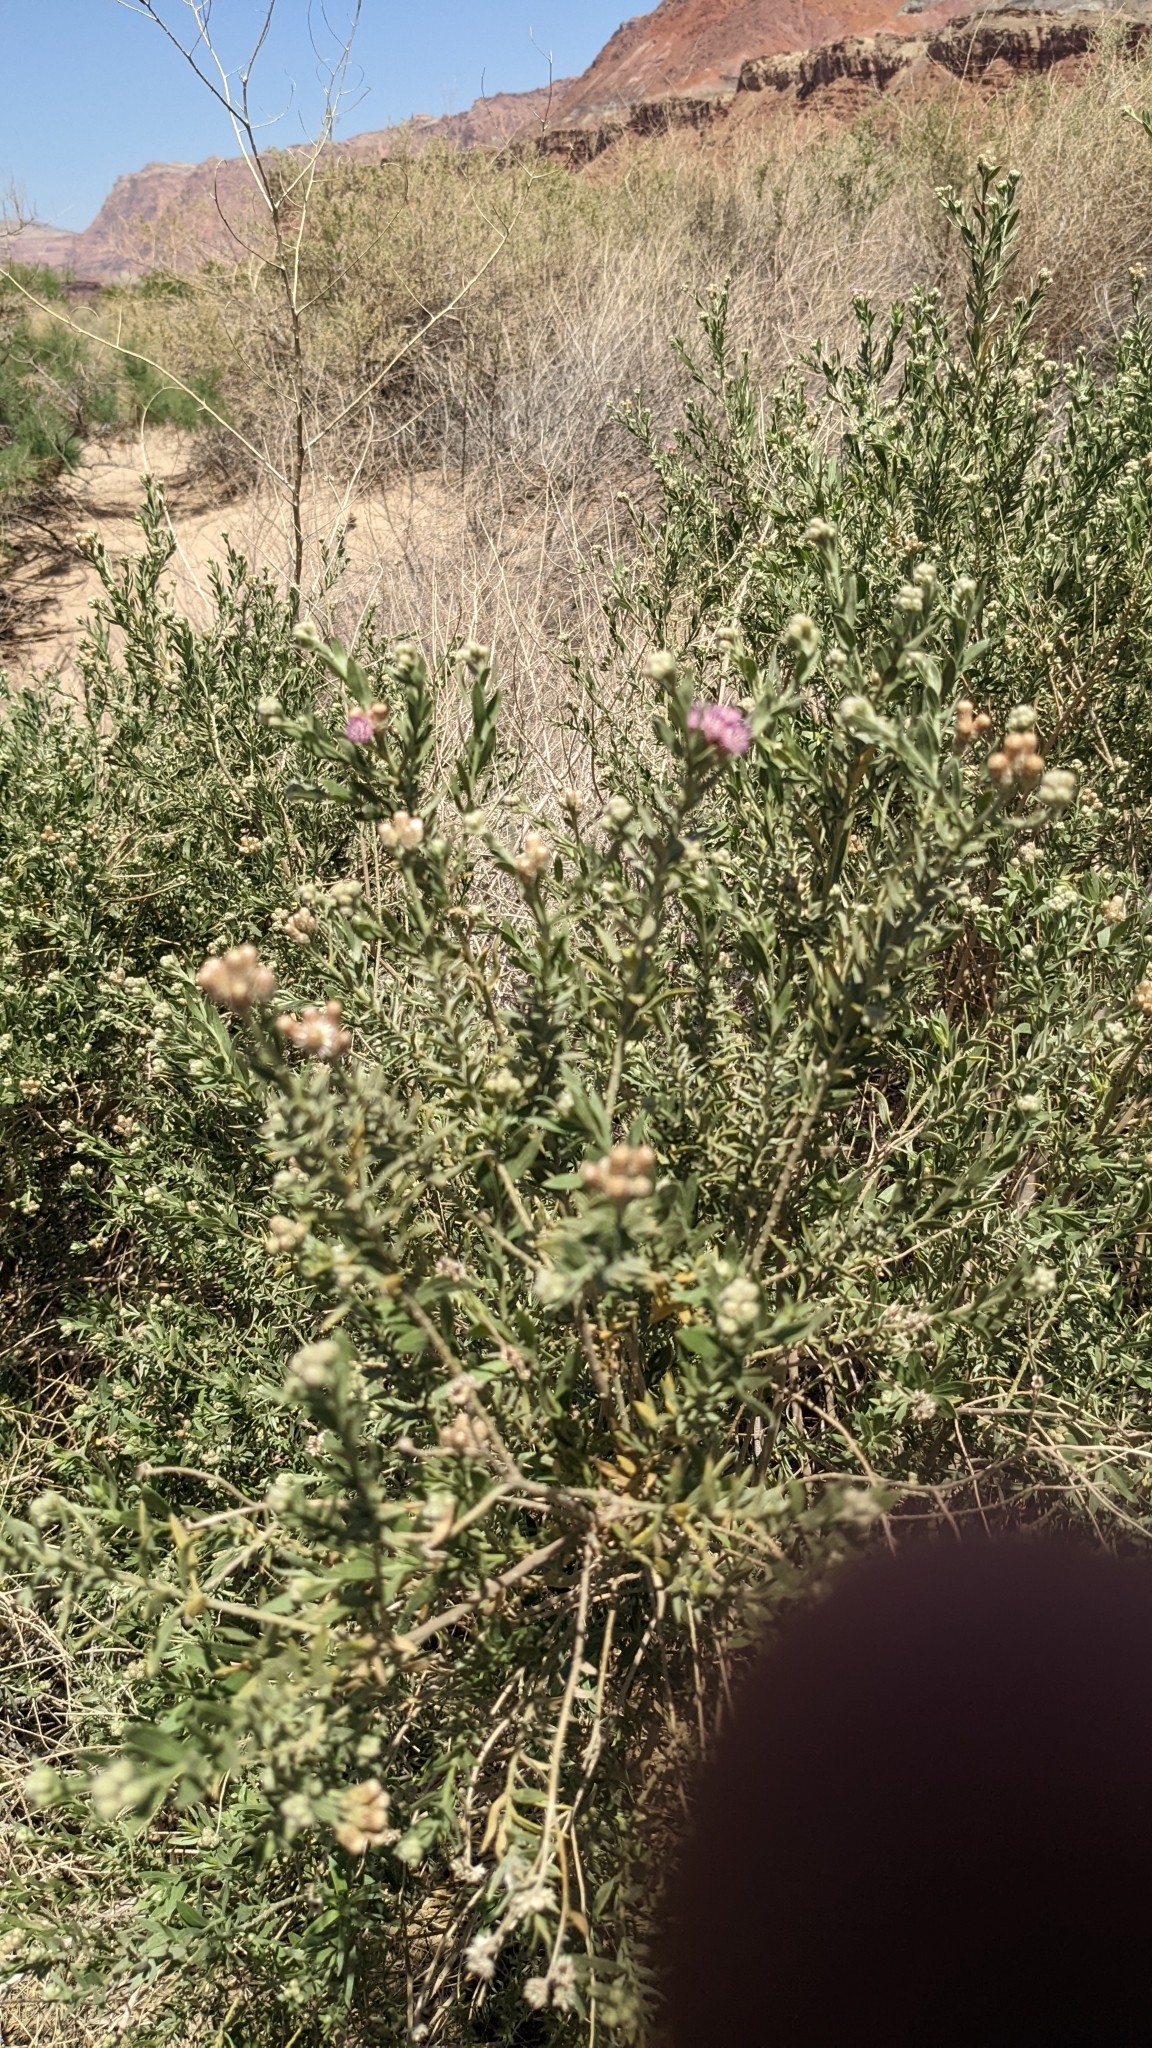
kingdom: Plantae
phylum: Tracheophyta
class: Magnoliopsida
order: Asterales
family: Asteraceae
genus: Pluchea
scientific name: Pluchea sericea
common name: Arrow-weed
